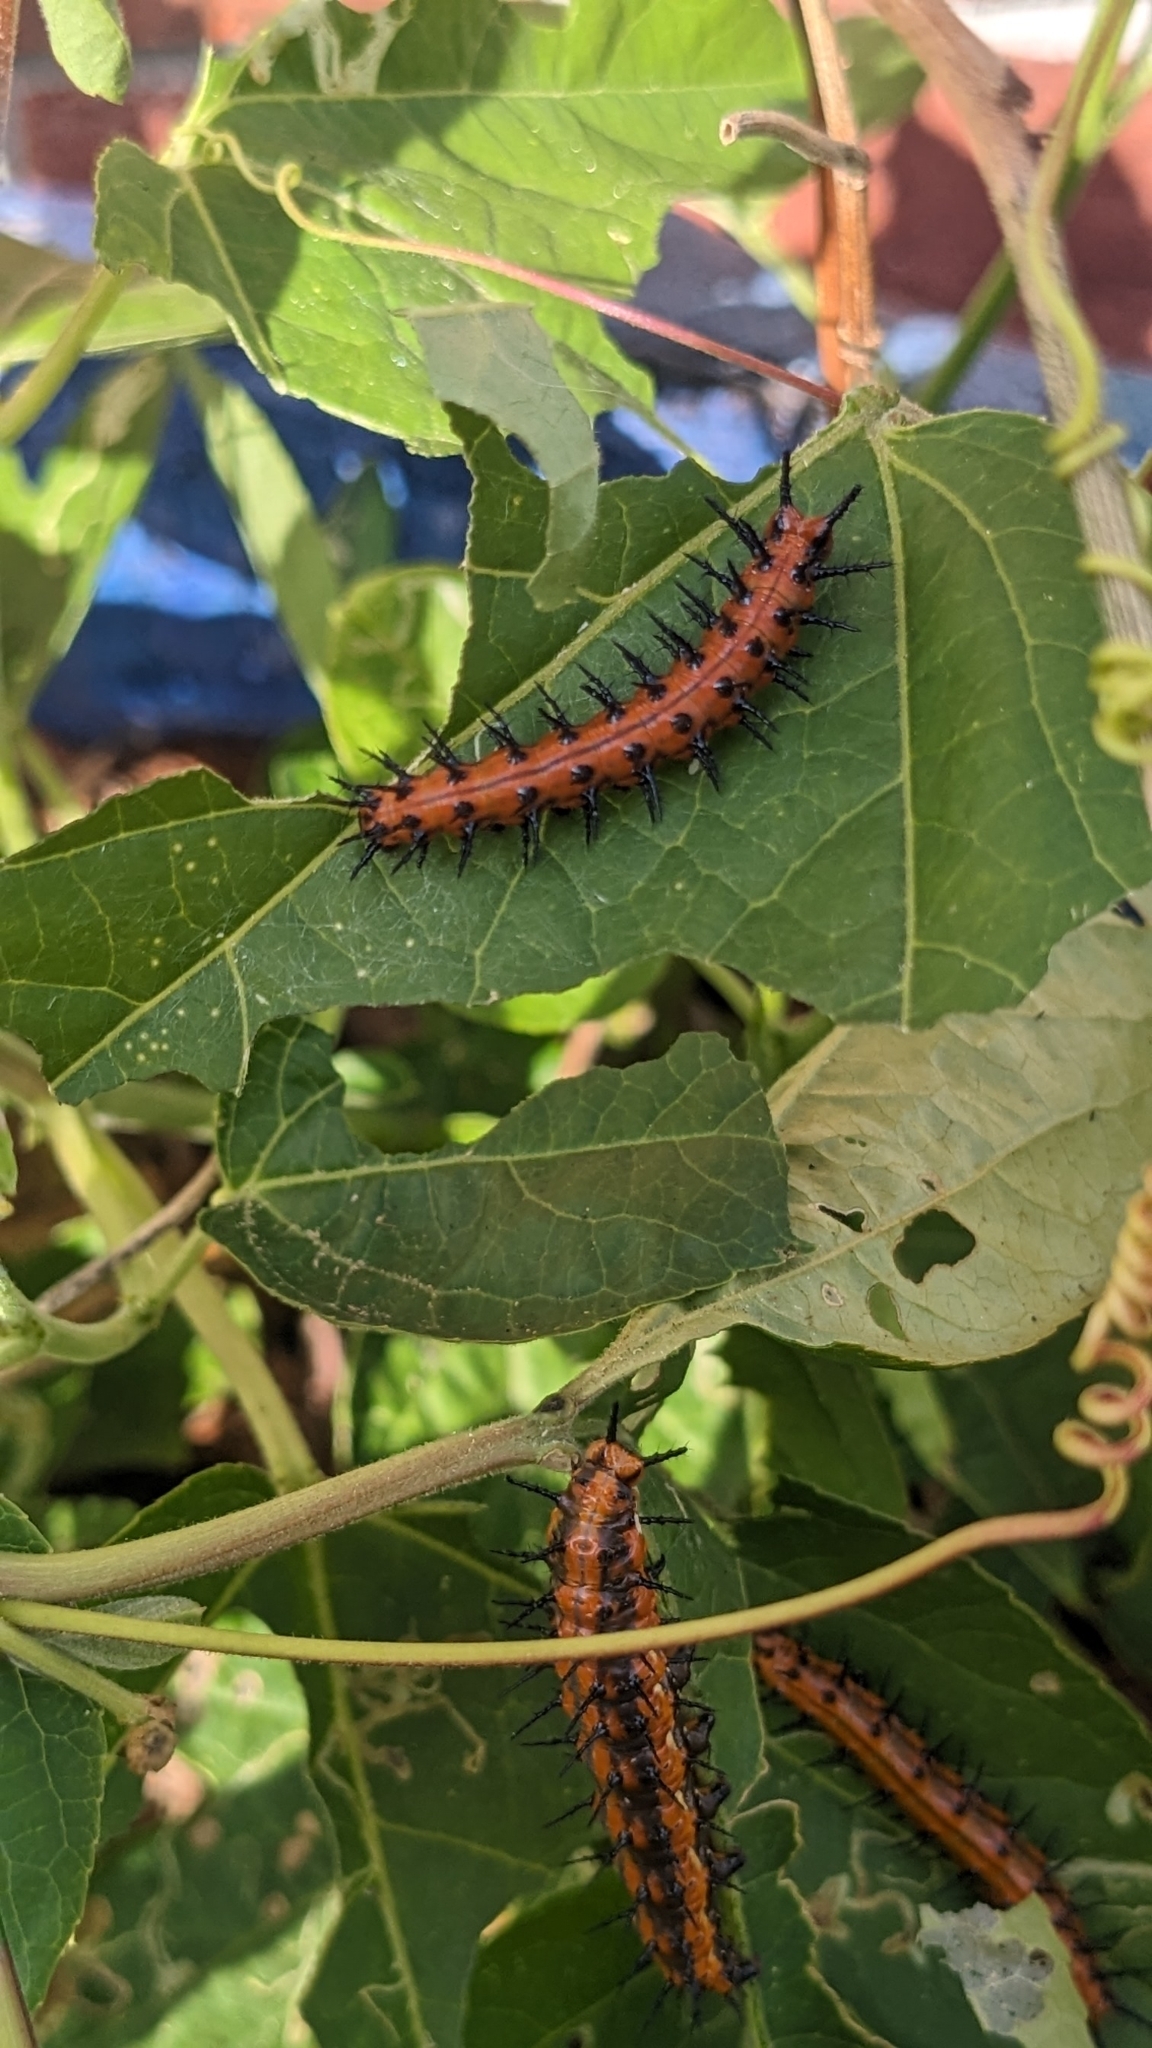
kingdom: Animalia
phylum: Arthropoda
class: Insecta
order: Lepidoptera
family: Nymphalidae
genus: Dione
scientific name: Dione vanillae
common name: Gulf fritillary
